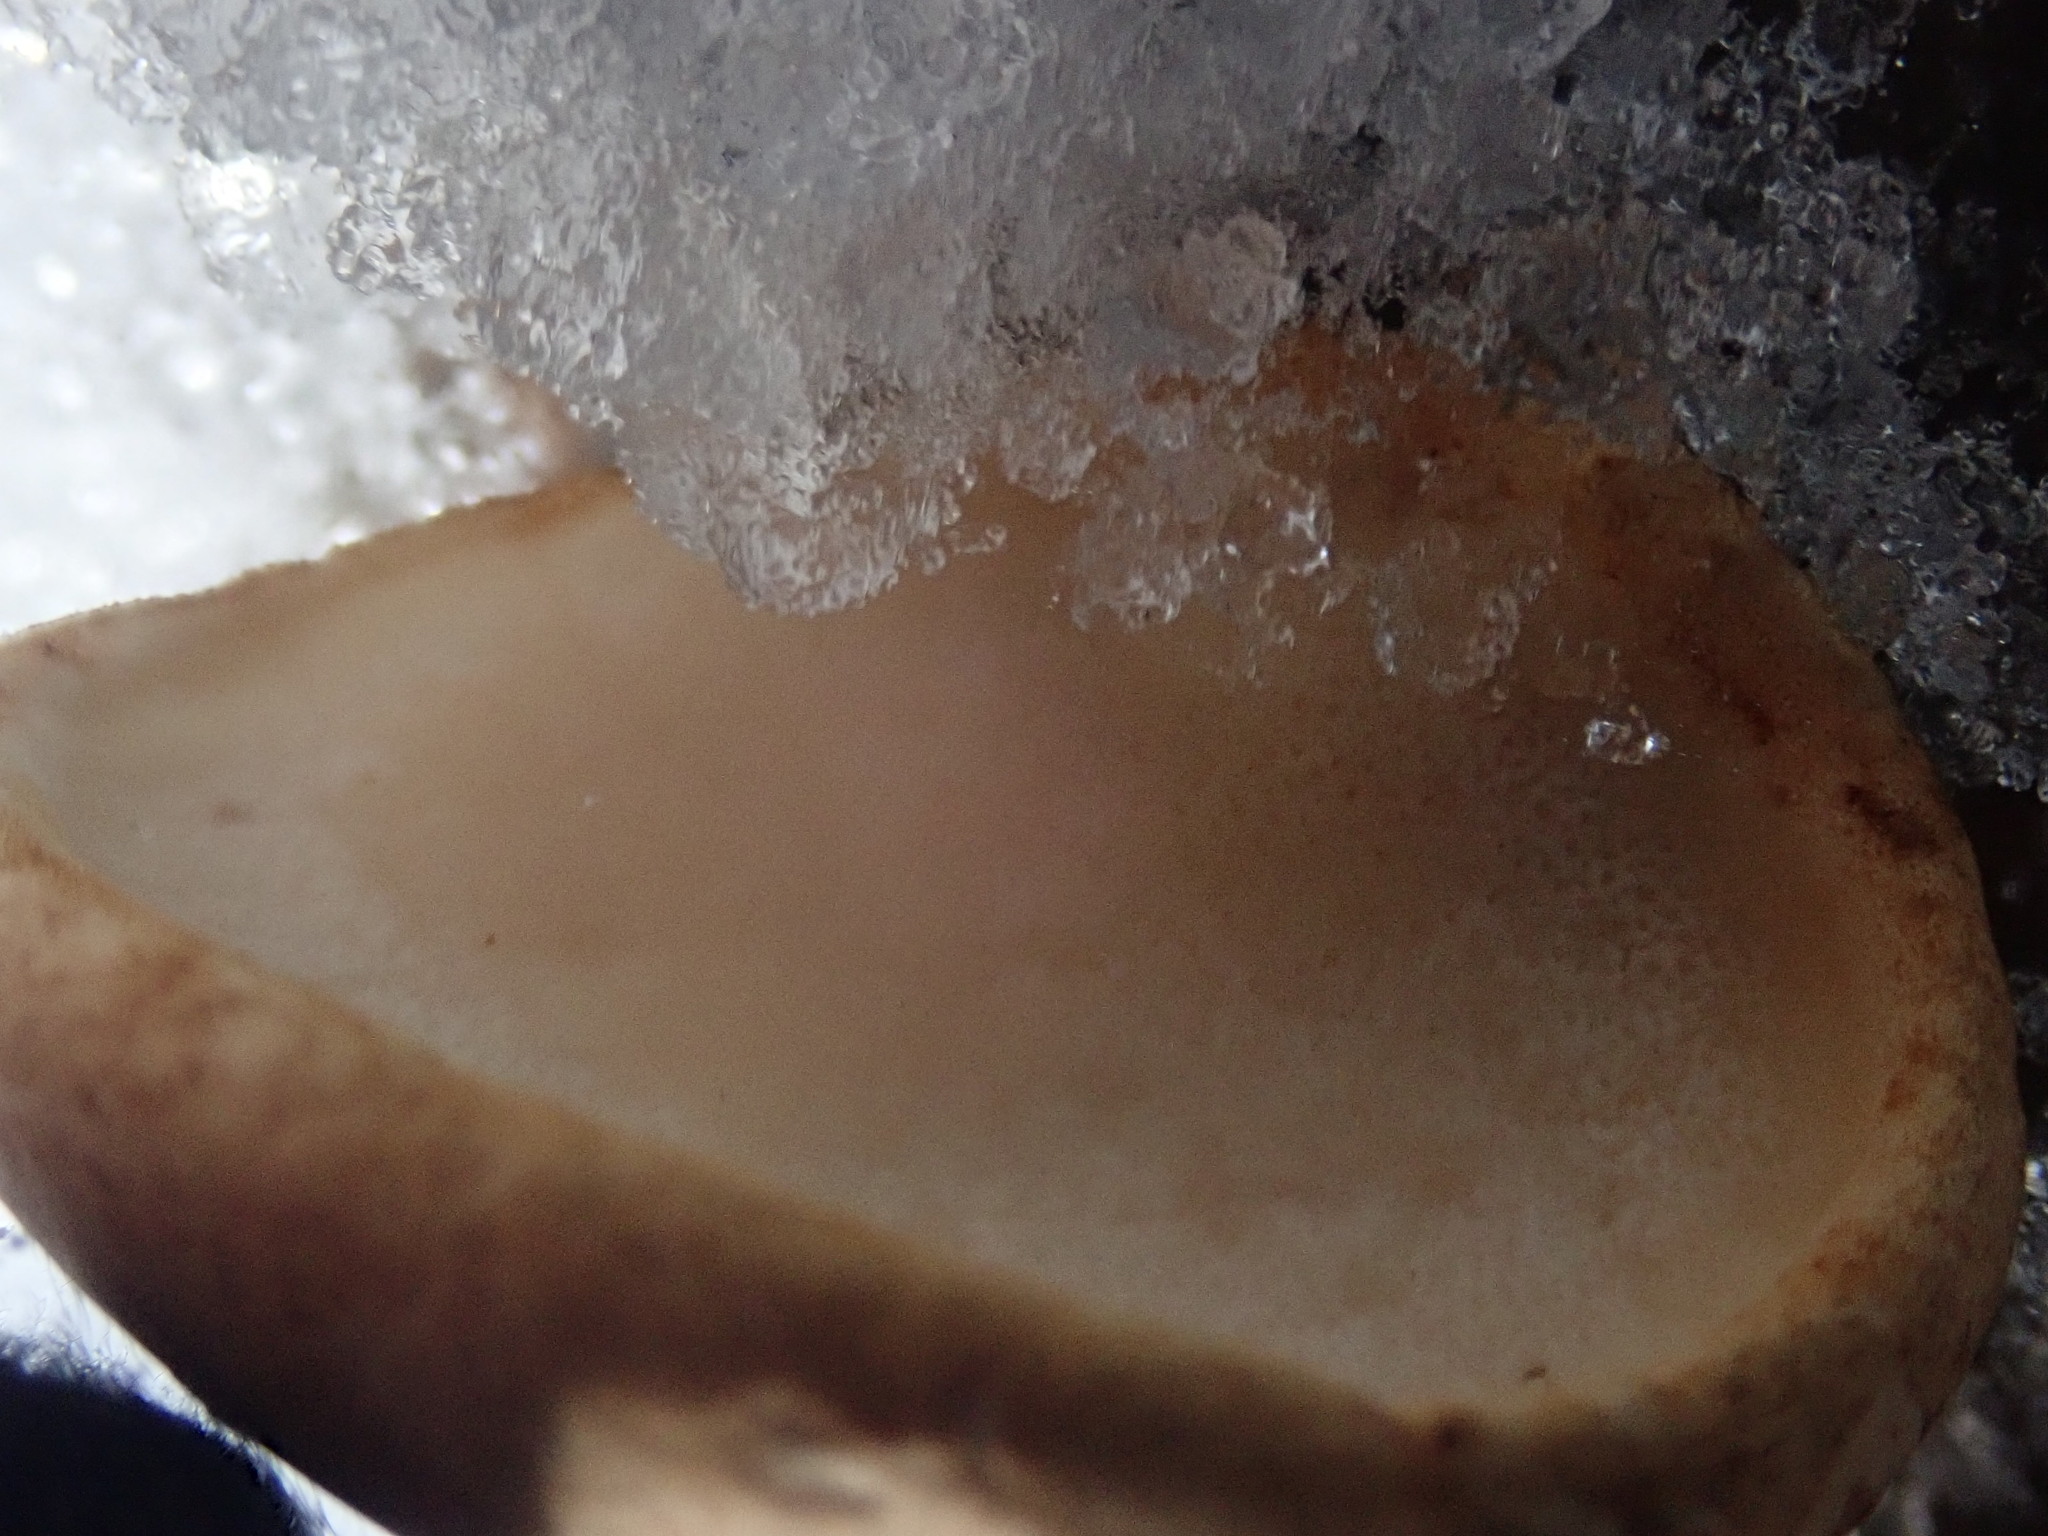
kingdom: Fungi
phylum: Basidiomycota
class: Agaricomycetes
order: Polyporales
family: Fomitopsidaceae
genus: Fomitopsis
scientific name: Fomitopsis betulina
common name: Birch polypore
